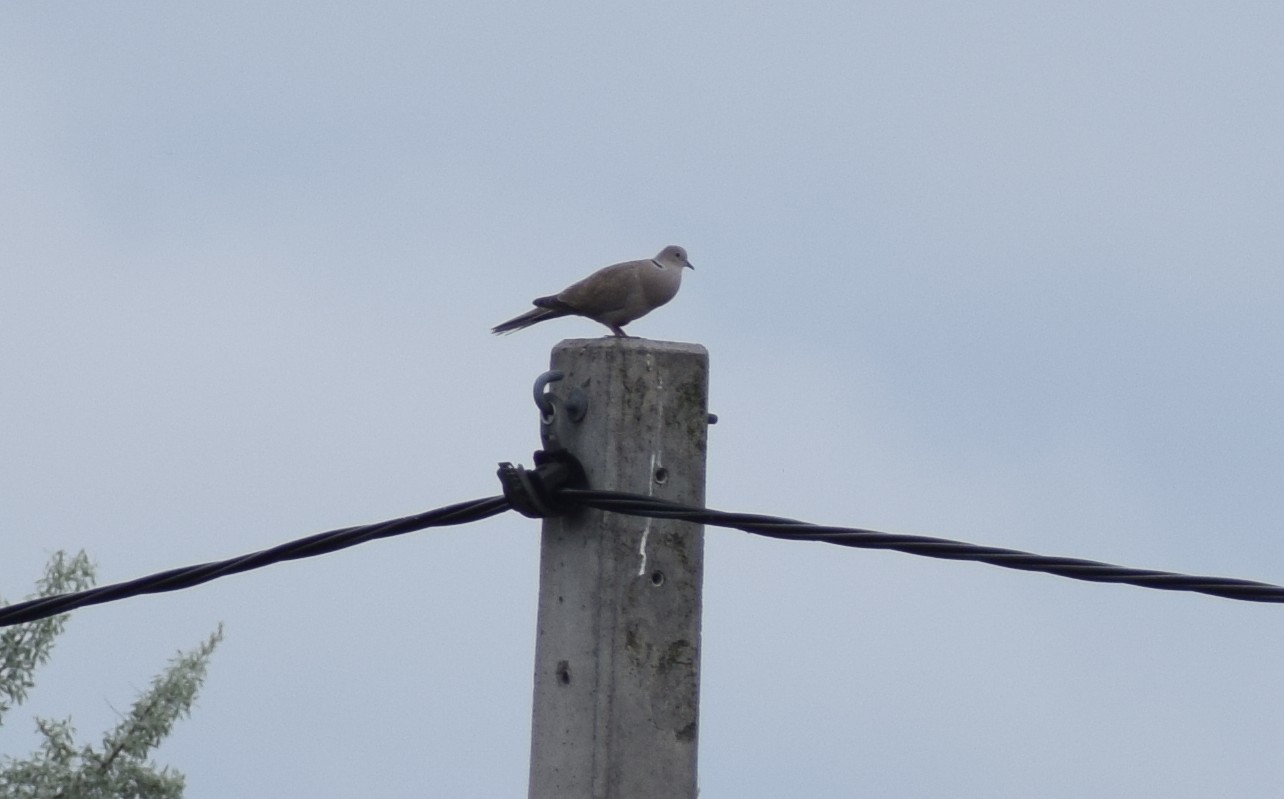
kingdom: Animalia
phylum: Chordata
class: Aves
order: Columbiformes
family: Columbidae
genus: Streptopelia
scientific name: Streptopelia decaocto
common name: Eurasian collared dove
